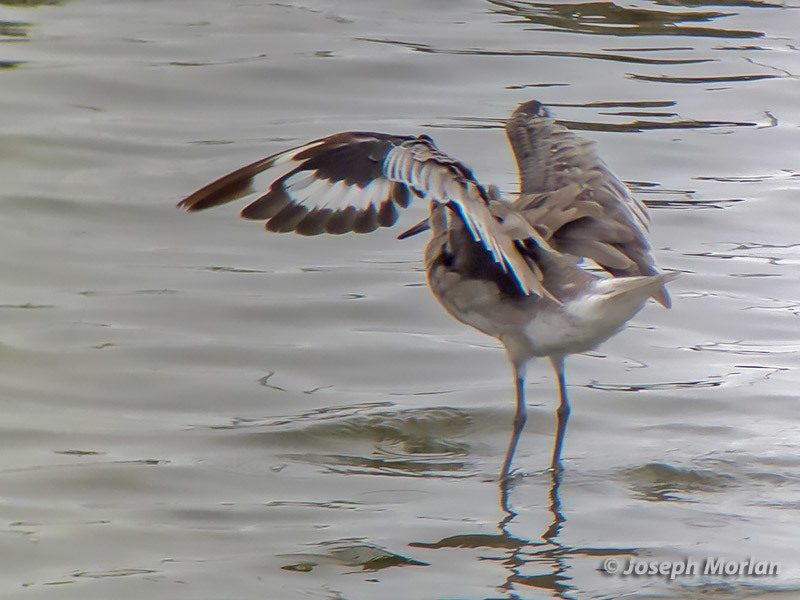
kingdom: Animalia
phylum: Chordata
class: Aves
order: Charadriiformes
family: Scolopacidae
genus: Tringa
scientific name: Tringa semipalmata
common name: Willet
